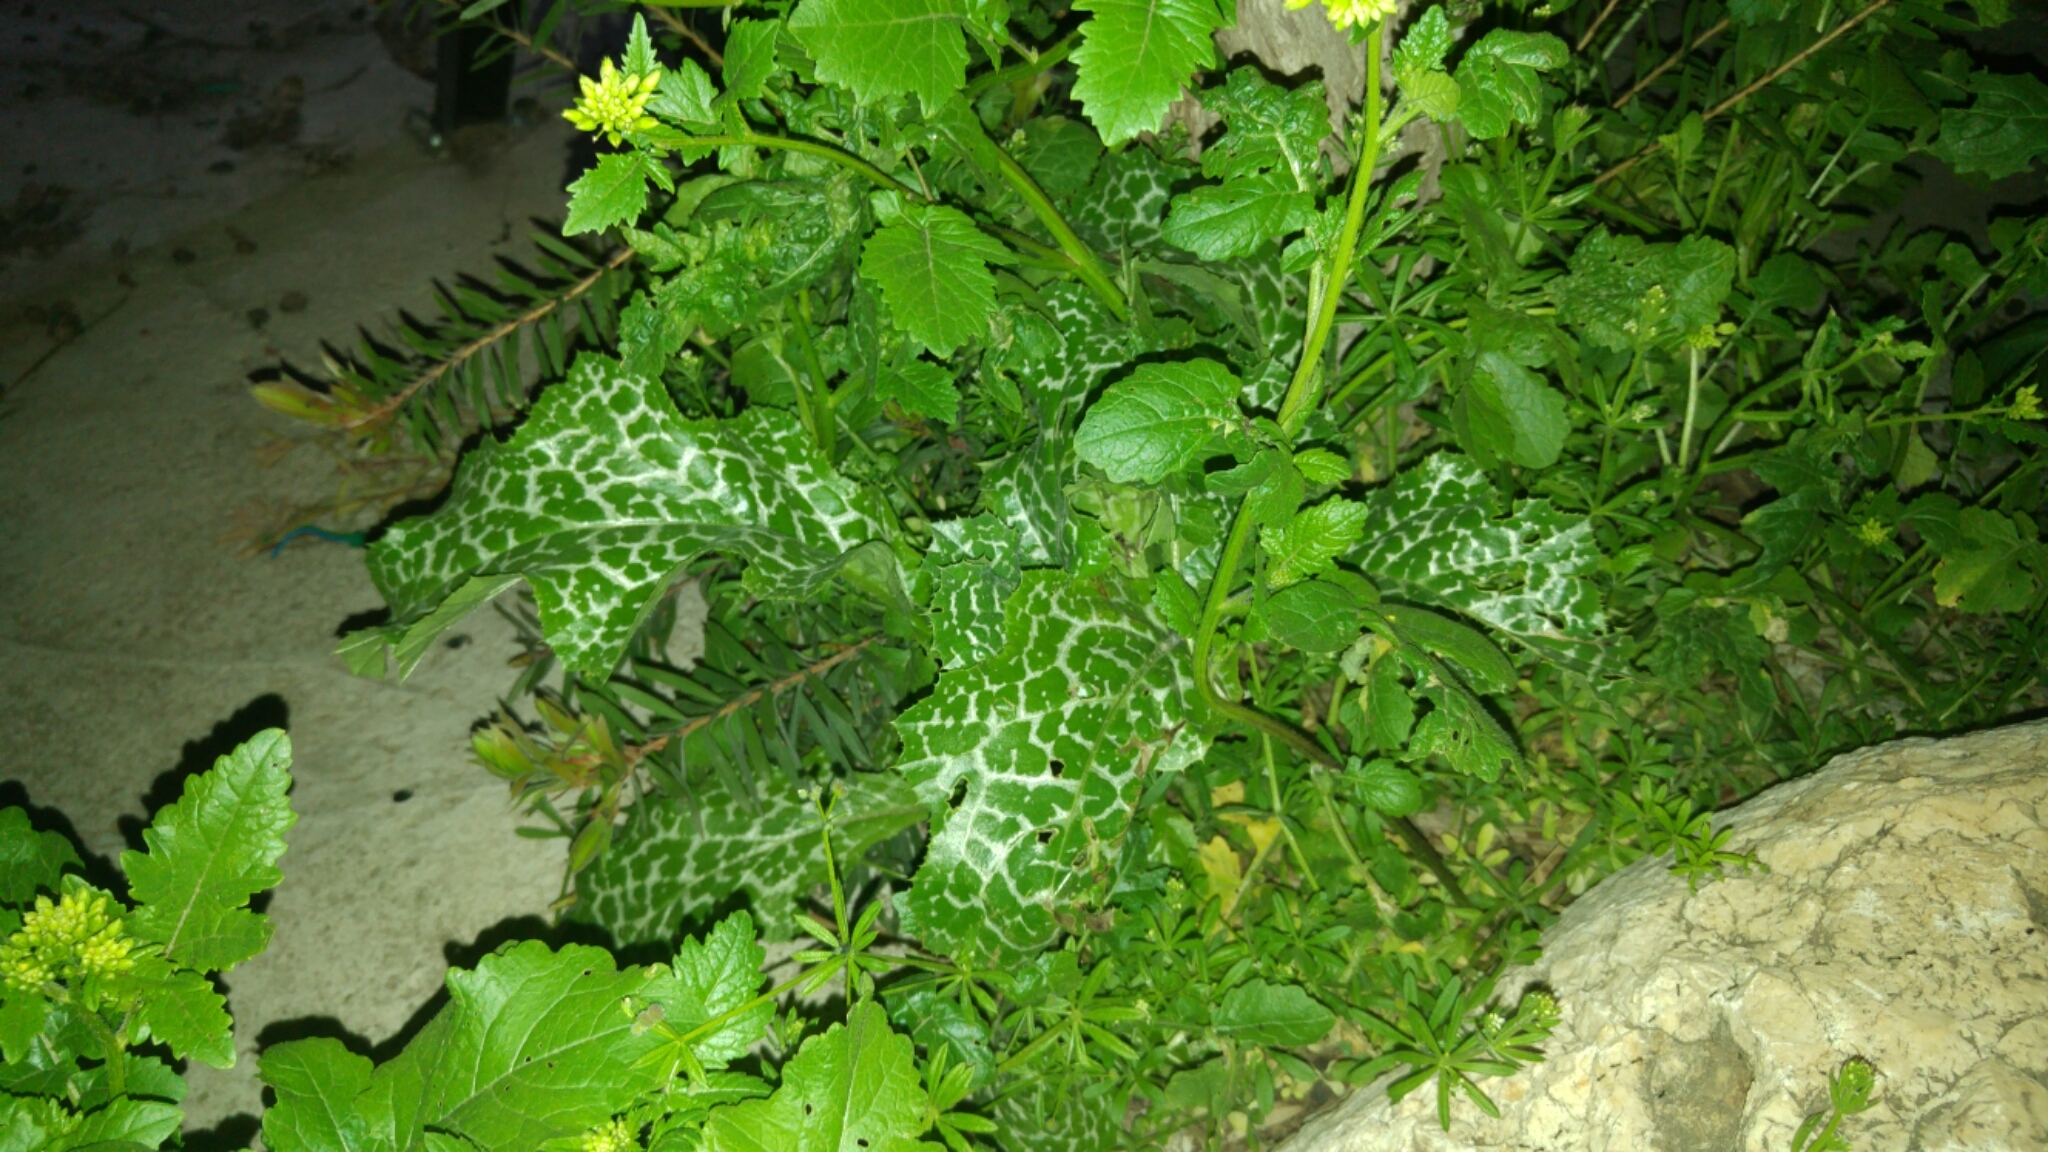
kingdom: Plantae
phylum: Tracheophyta
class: Magnoliopsida
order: Asterales
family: Asteraceae
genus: Silybum
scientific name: Silybum marianum
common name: Milk thistle
